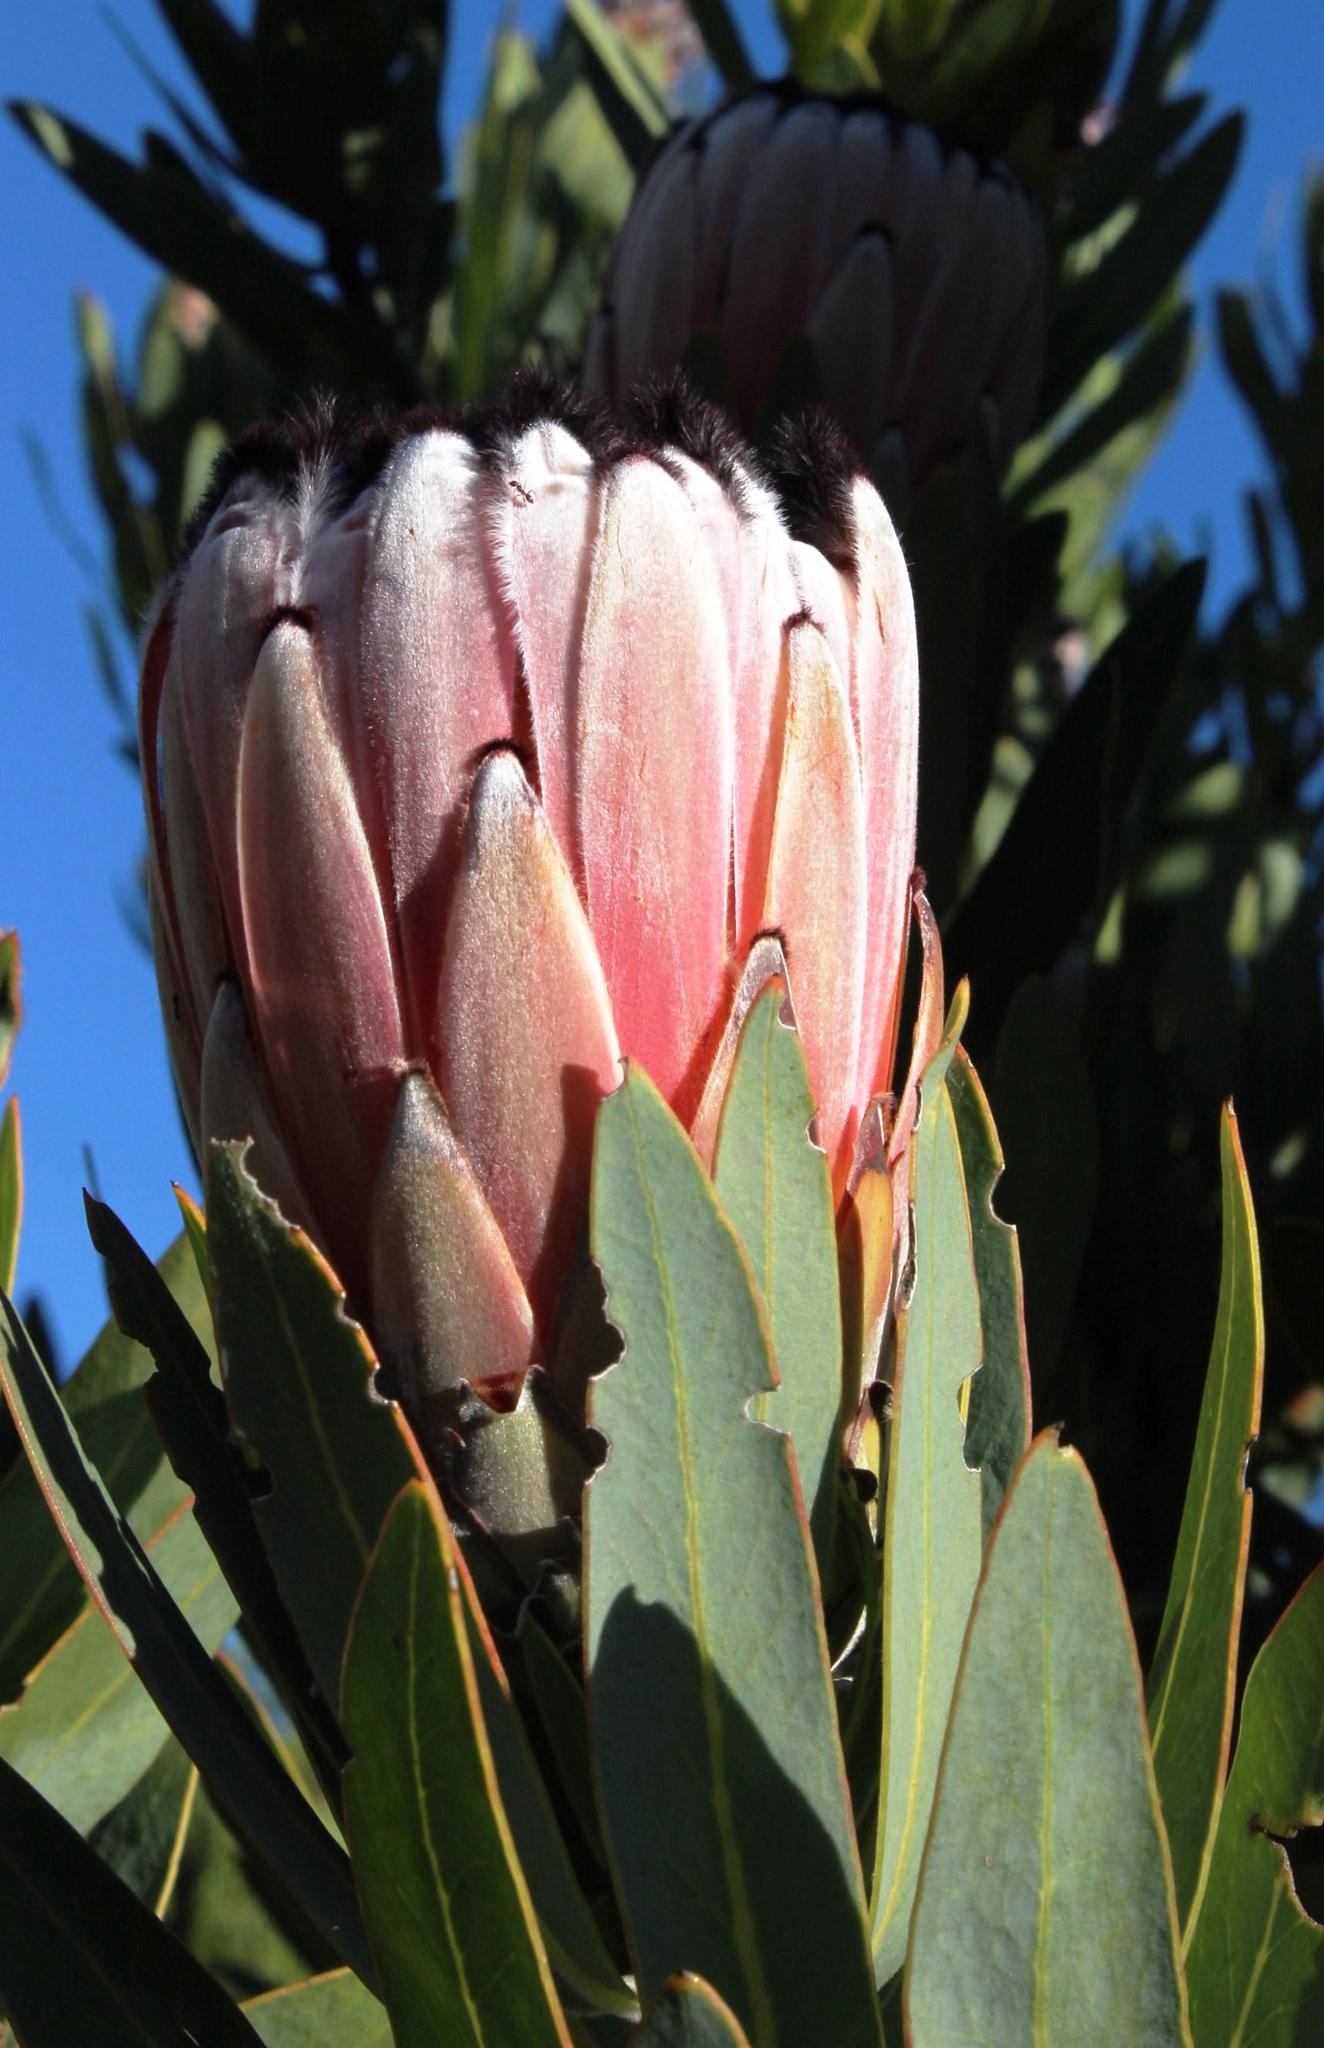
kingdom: Plantae
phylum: Tracheophyta
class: Magnoliopsida
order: Proteales
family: Proteaceae
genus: Protea
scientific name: Protea laurifolia
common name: Grey-leaf sugarbsh
